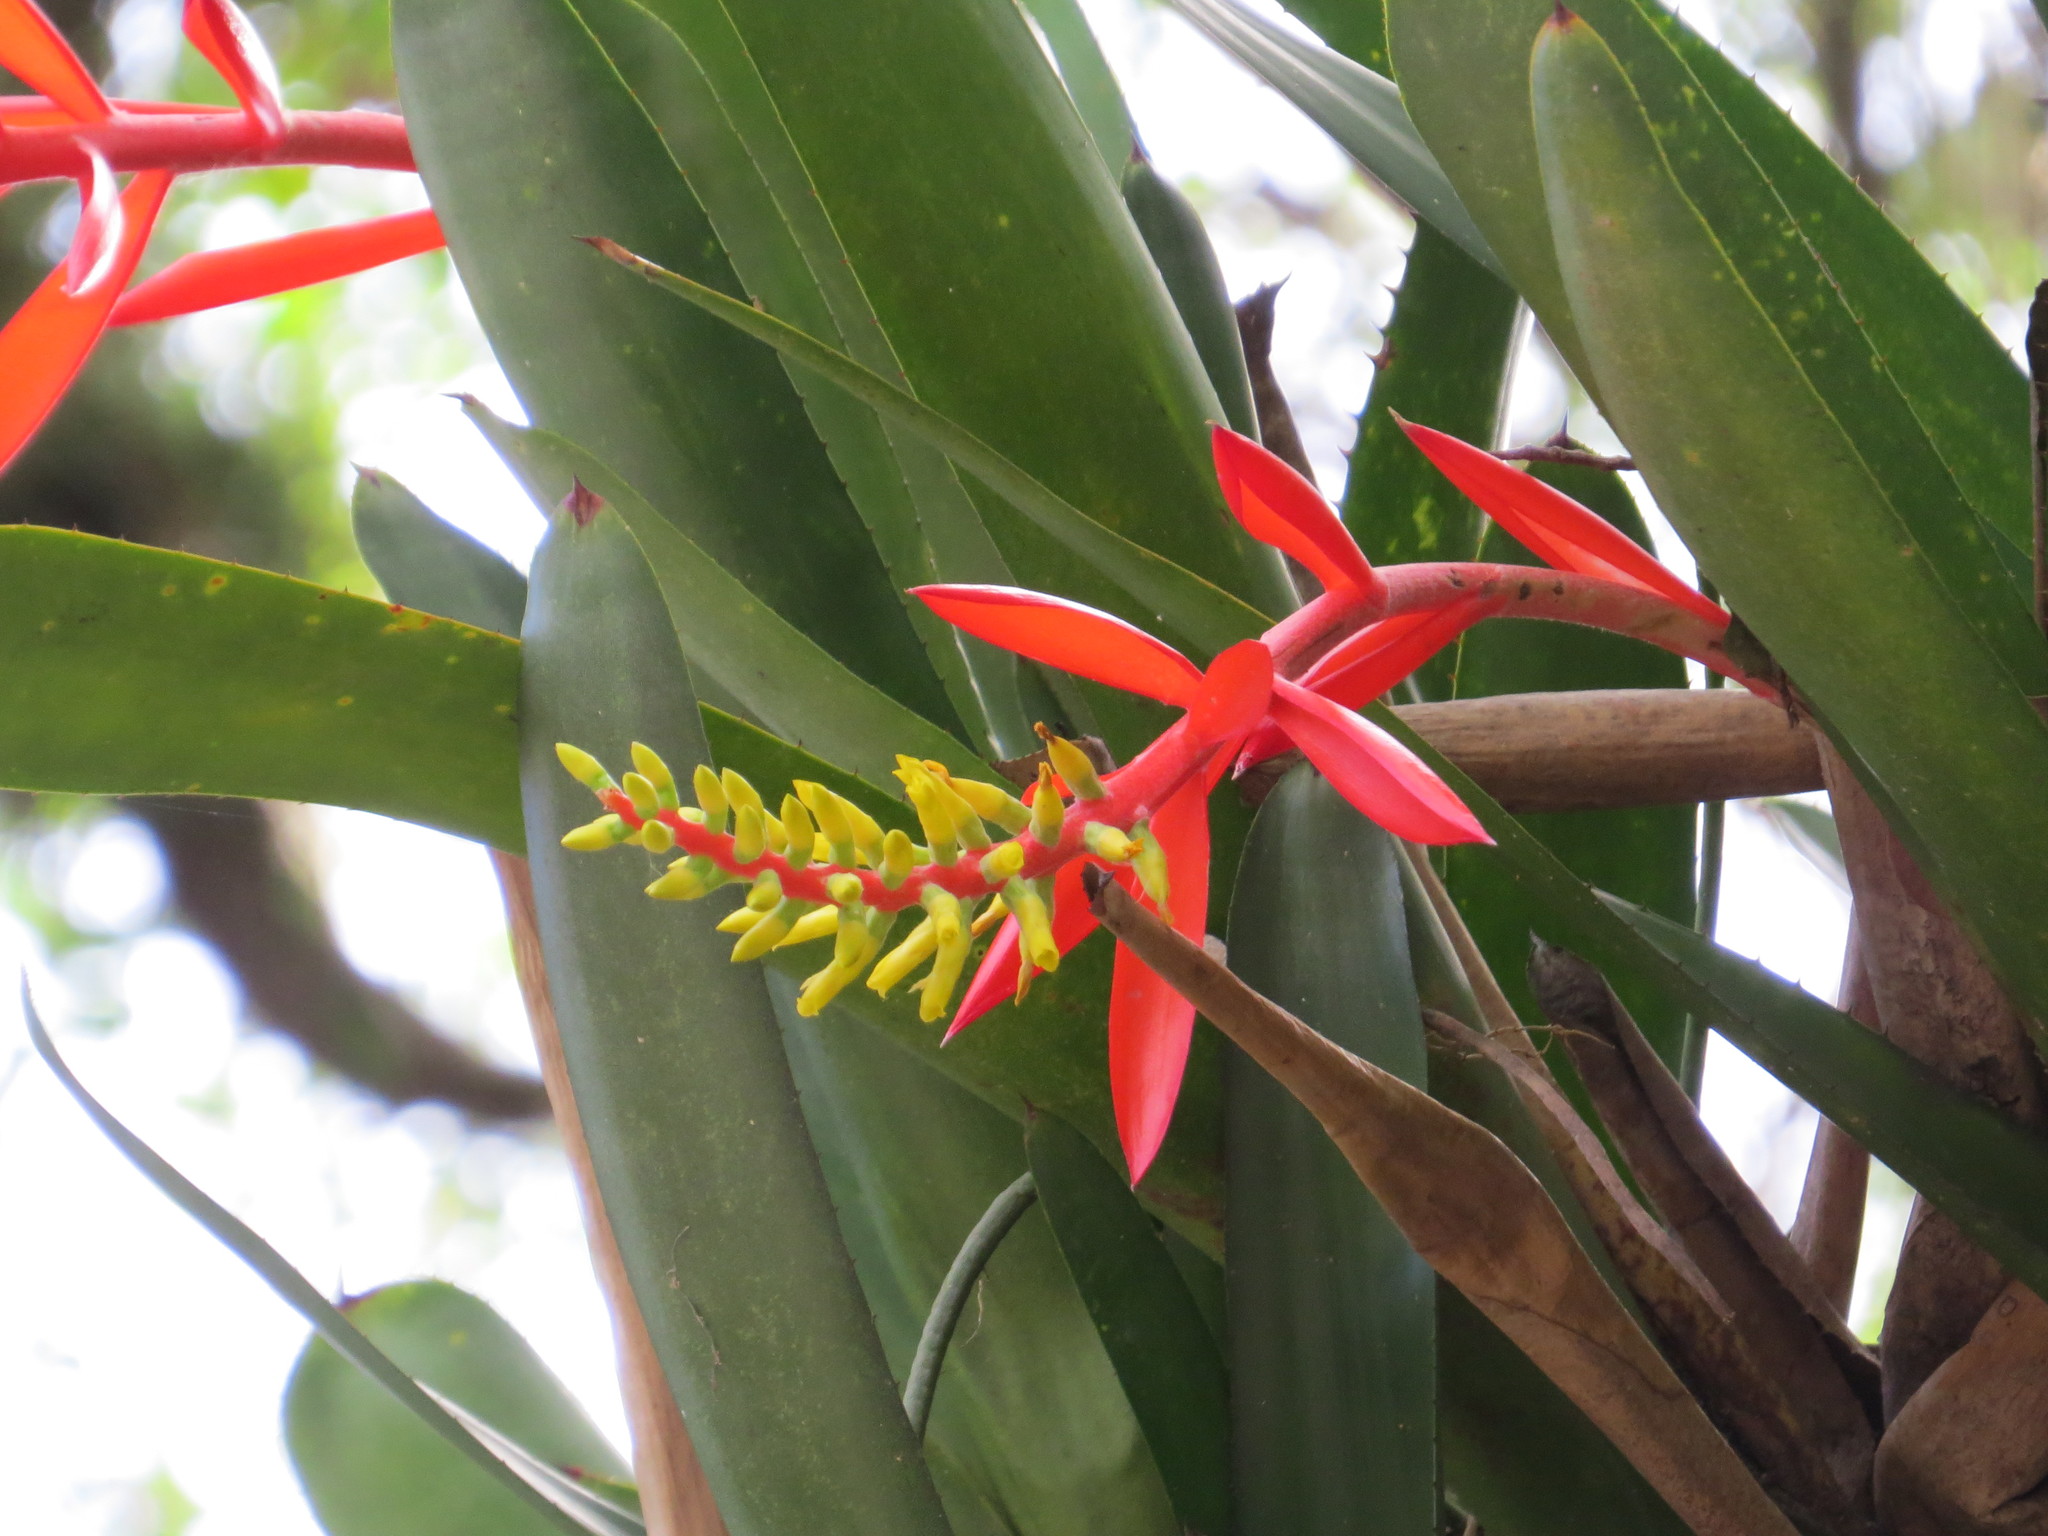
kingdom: Plantae
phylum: Tracheophyta
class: Liliopsida
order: Poales
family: Bromeliaceae
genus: Aechmea
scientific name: Aechmea nudicaulis
